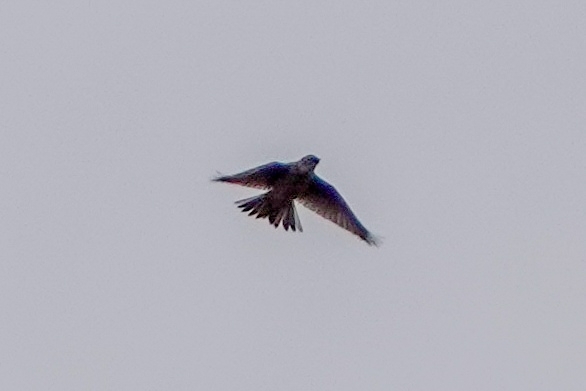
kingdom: Animalia
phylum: Chordata
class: Aves
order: Passeriformes
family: Alaudidae
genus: Alauda
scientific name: Alauda arvensis
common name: Eurasian skylark
